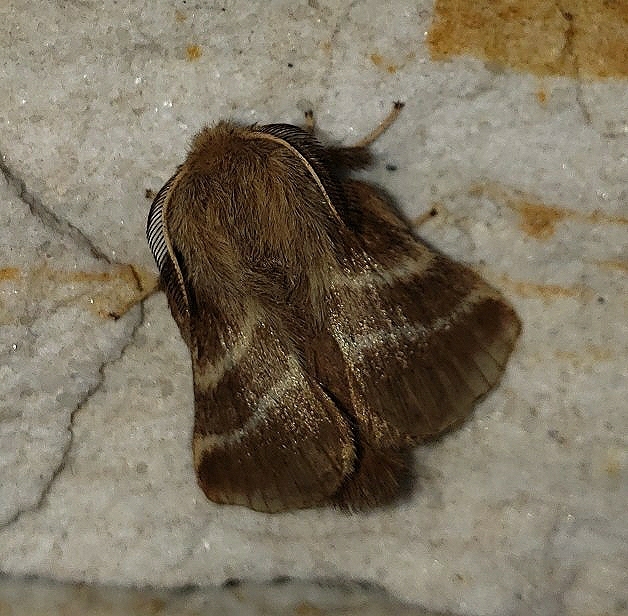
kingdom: Animalia
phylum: Arthropoda
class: Insecta
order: Lepidoptera
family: Lasiocampidae
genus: Malacosoma
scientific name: Malacosoma americana
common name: Eastern tent caterpillar moth
